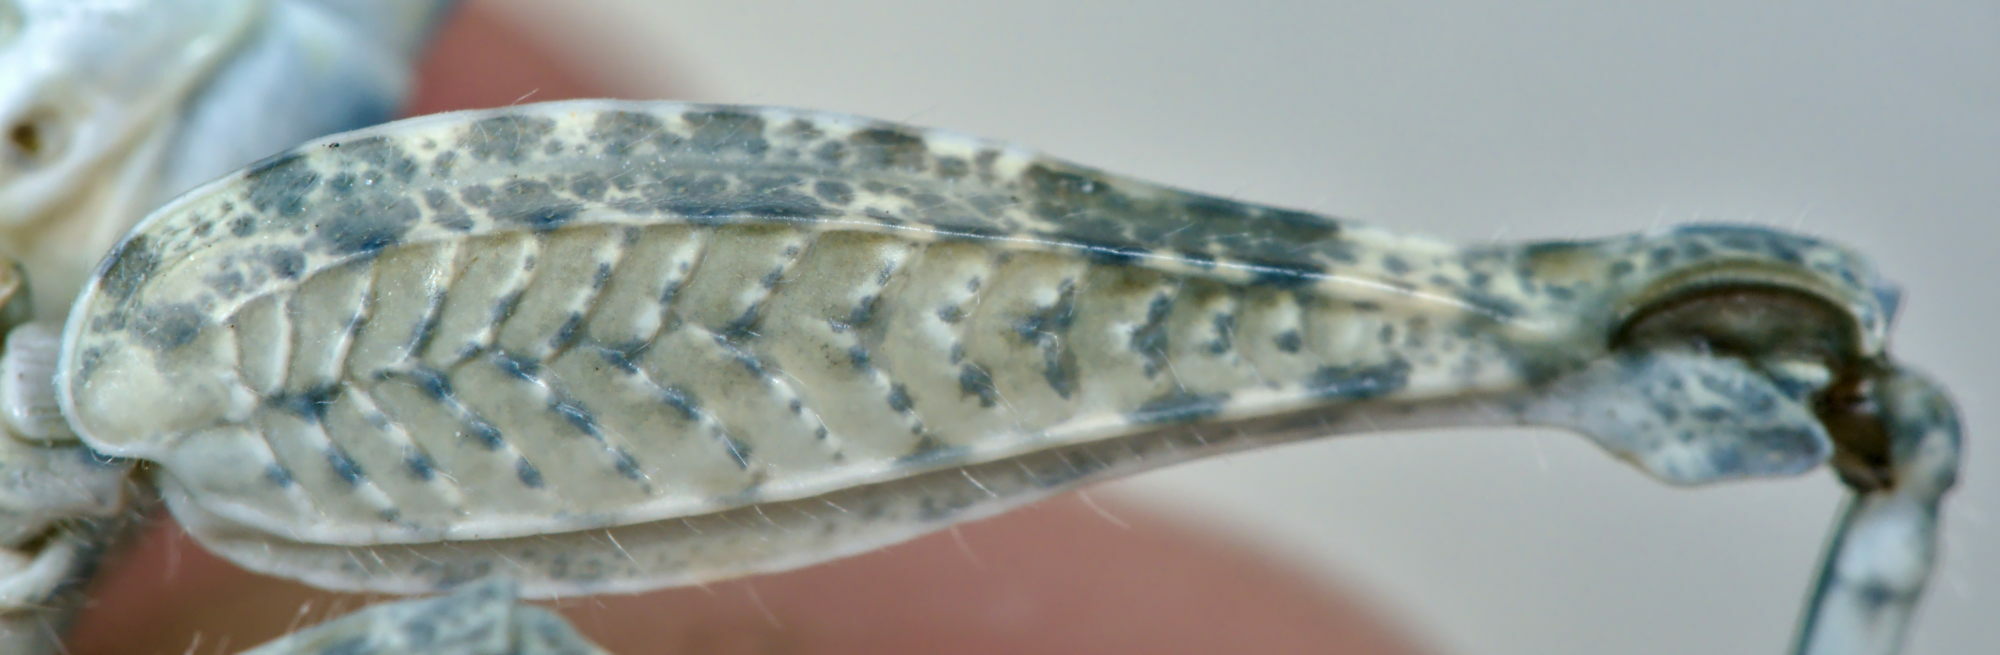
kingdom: Animalia
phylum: Arthropoda
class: Insecta
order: Orthoptera
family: Acrididae
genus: Sphingonotus
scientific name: Sphingonotus caerulans
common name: Blue-winged locust
